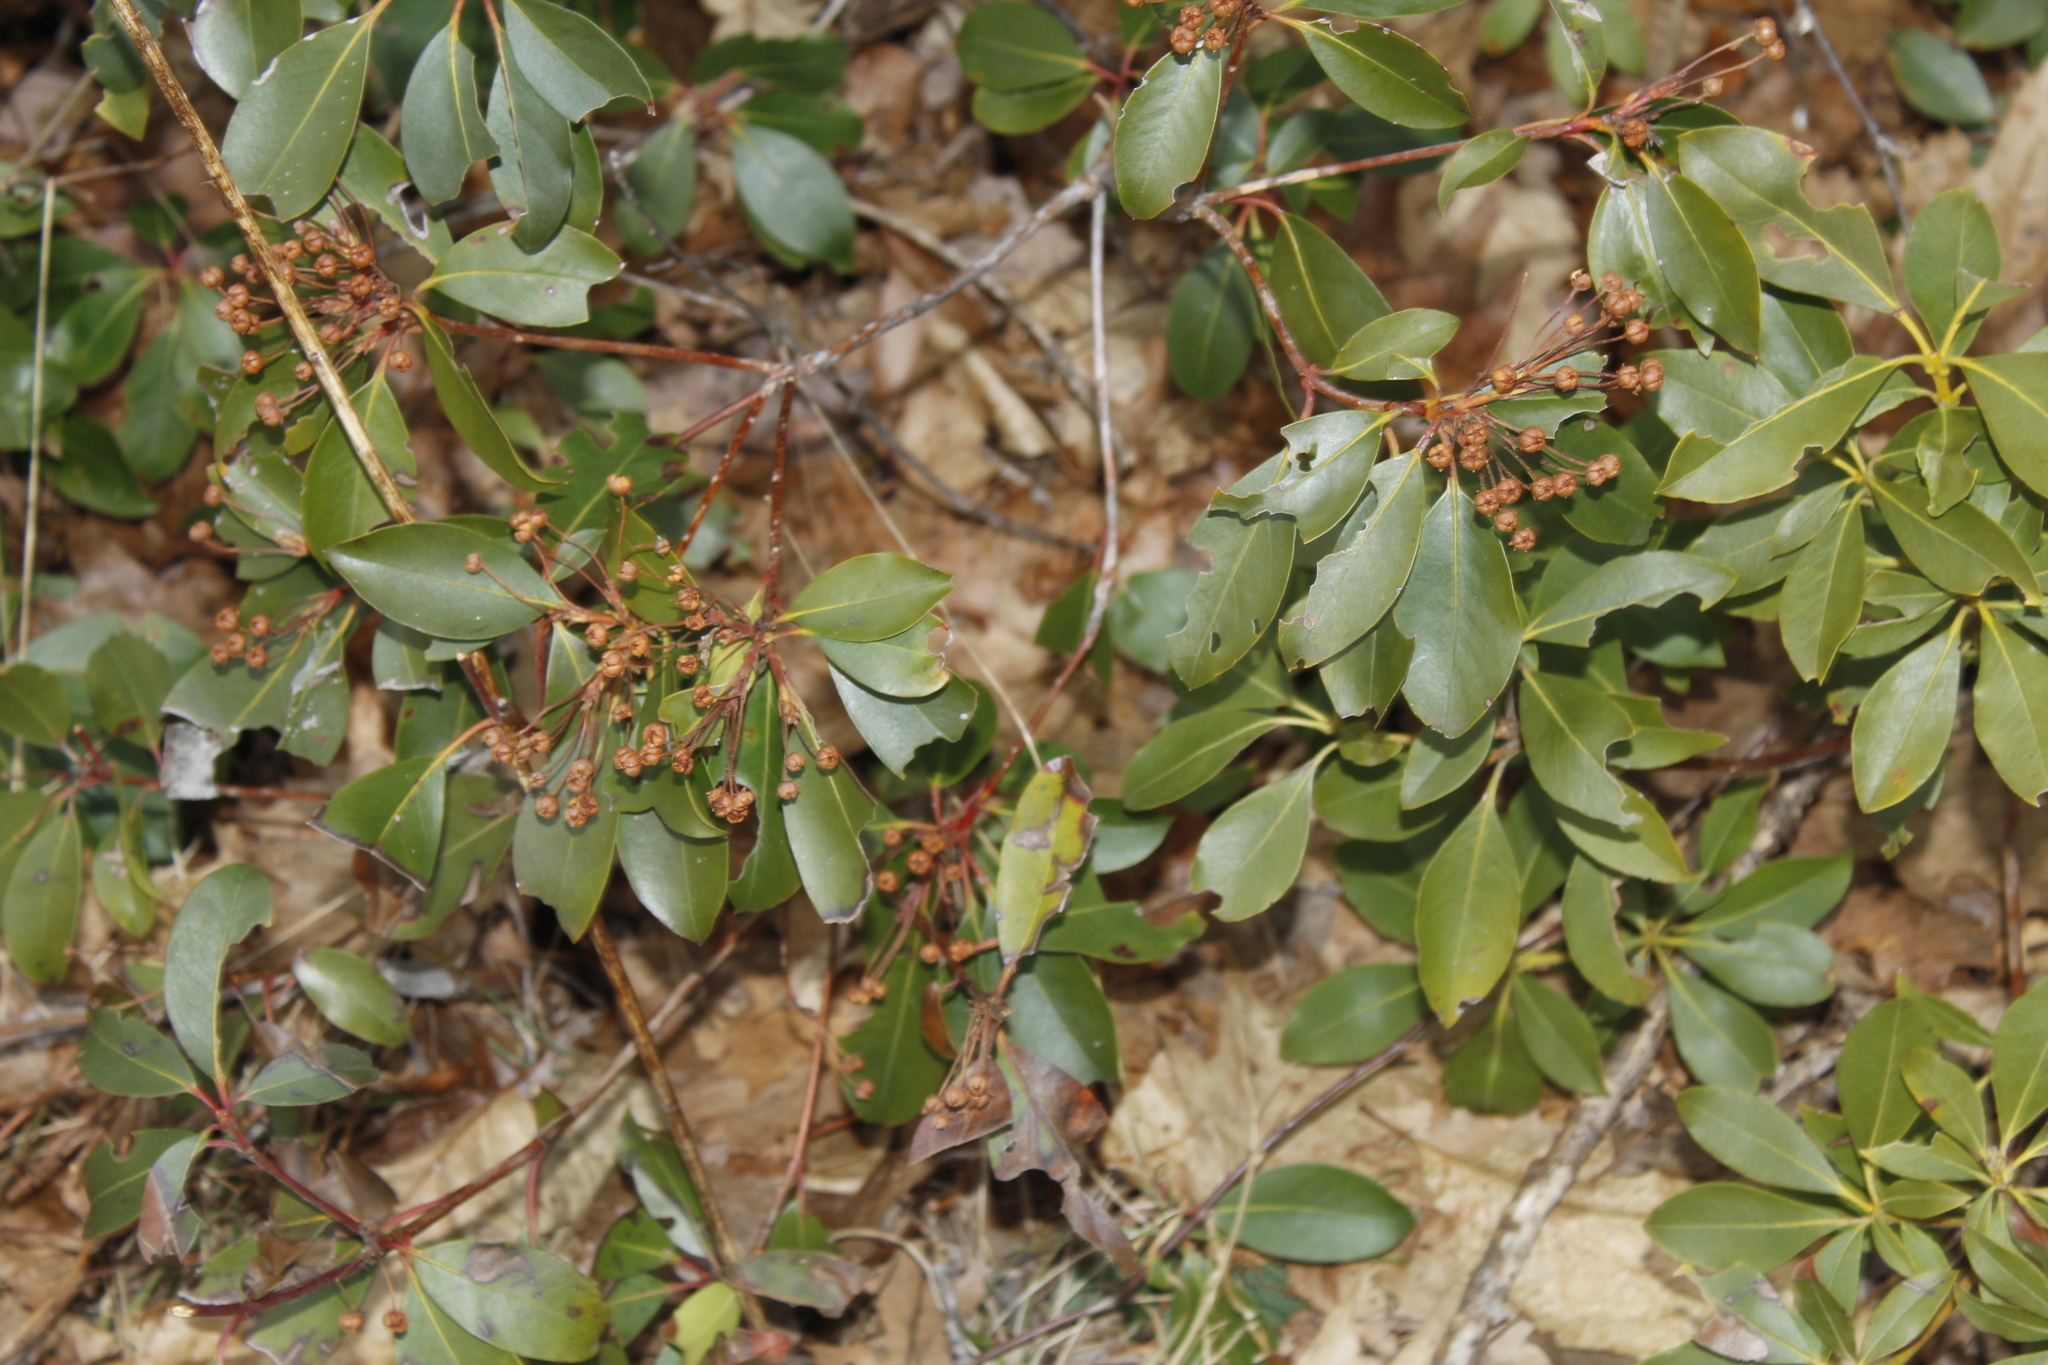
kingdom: Plantae
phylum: Tracheophyta
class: Magnoliopsida
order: Ericales
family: Ericaceae
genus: Kalmia
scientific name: Kalmia latifolia
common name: Mountain-laurel
